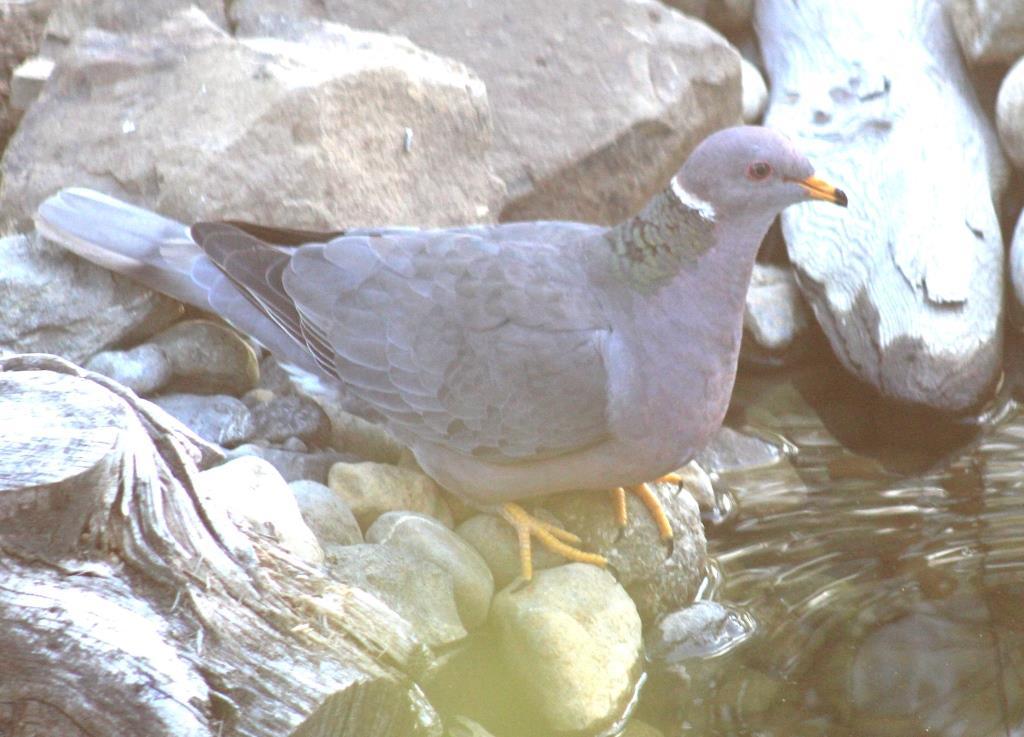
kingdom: Animalia
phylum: Chordata
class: Aves
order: Columbiformes
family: Columbidae
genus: Patagioenas
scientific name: Patagioenas fasciata
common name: Band-tailed pigeon
